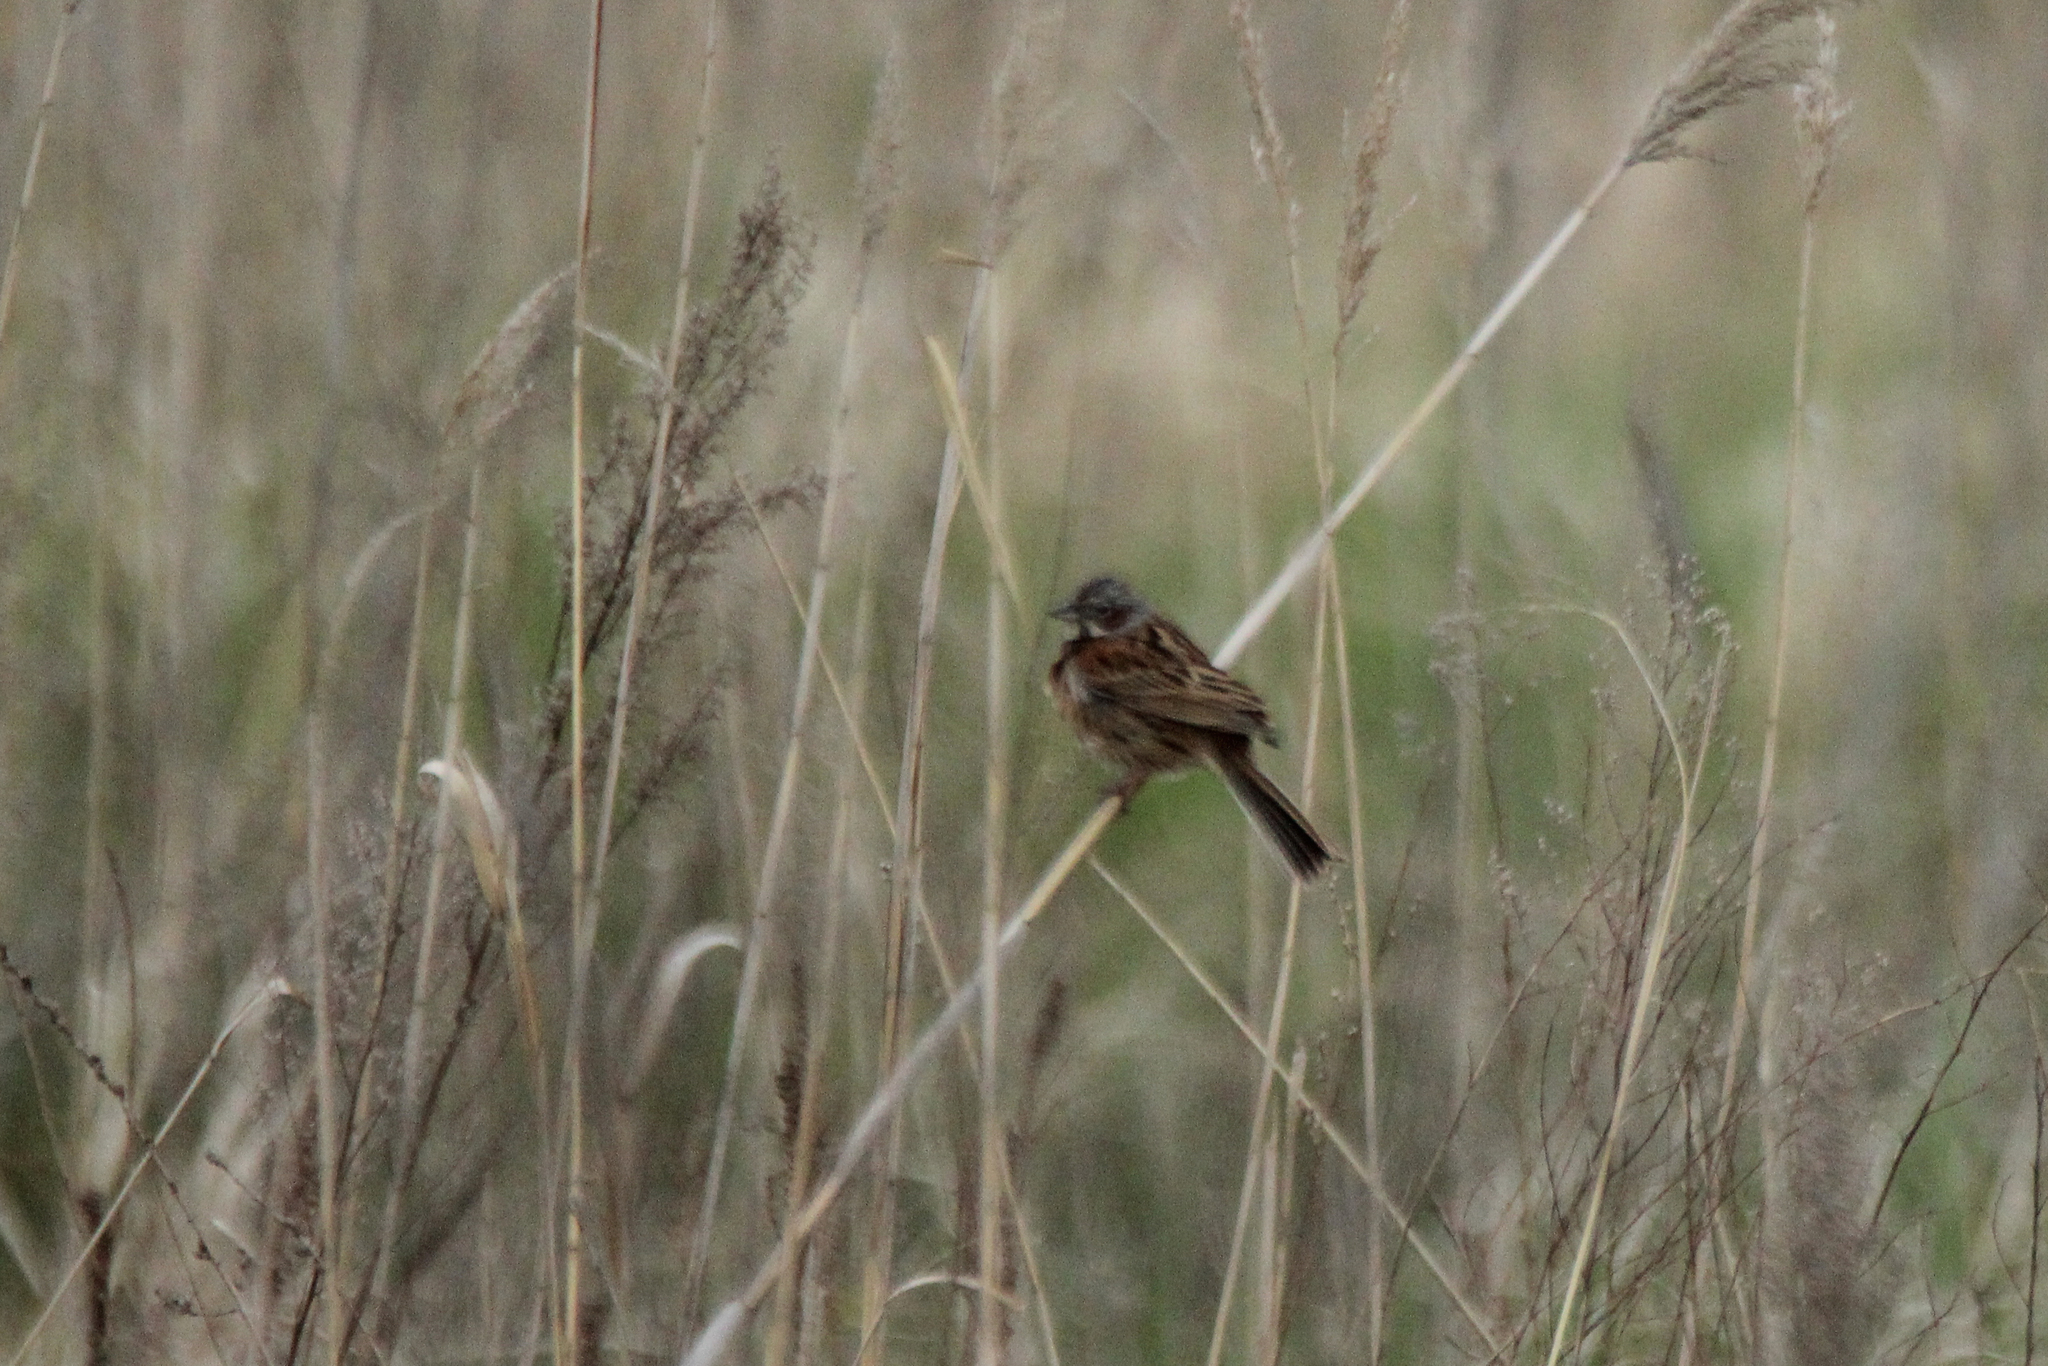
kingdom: Animalia
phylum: Chordata
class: Aves
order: Passeriformes
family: Emberizidae
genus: Emberiza
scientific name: Emberiza fucata
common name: Chestnut-eared bunting
